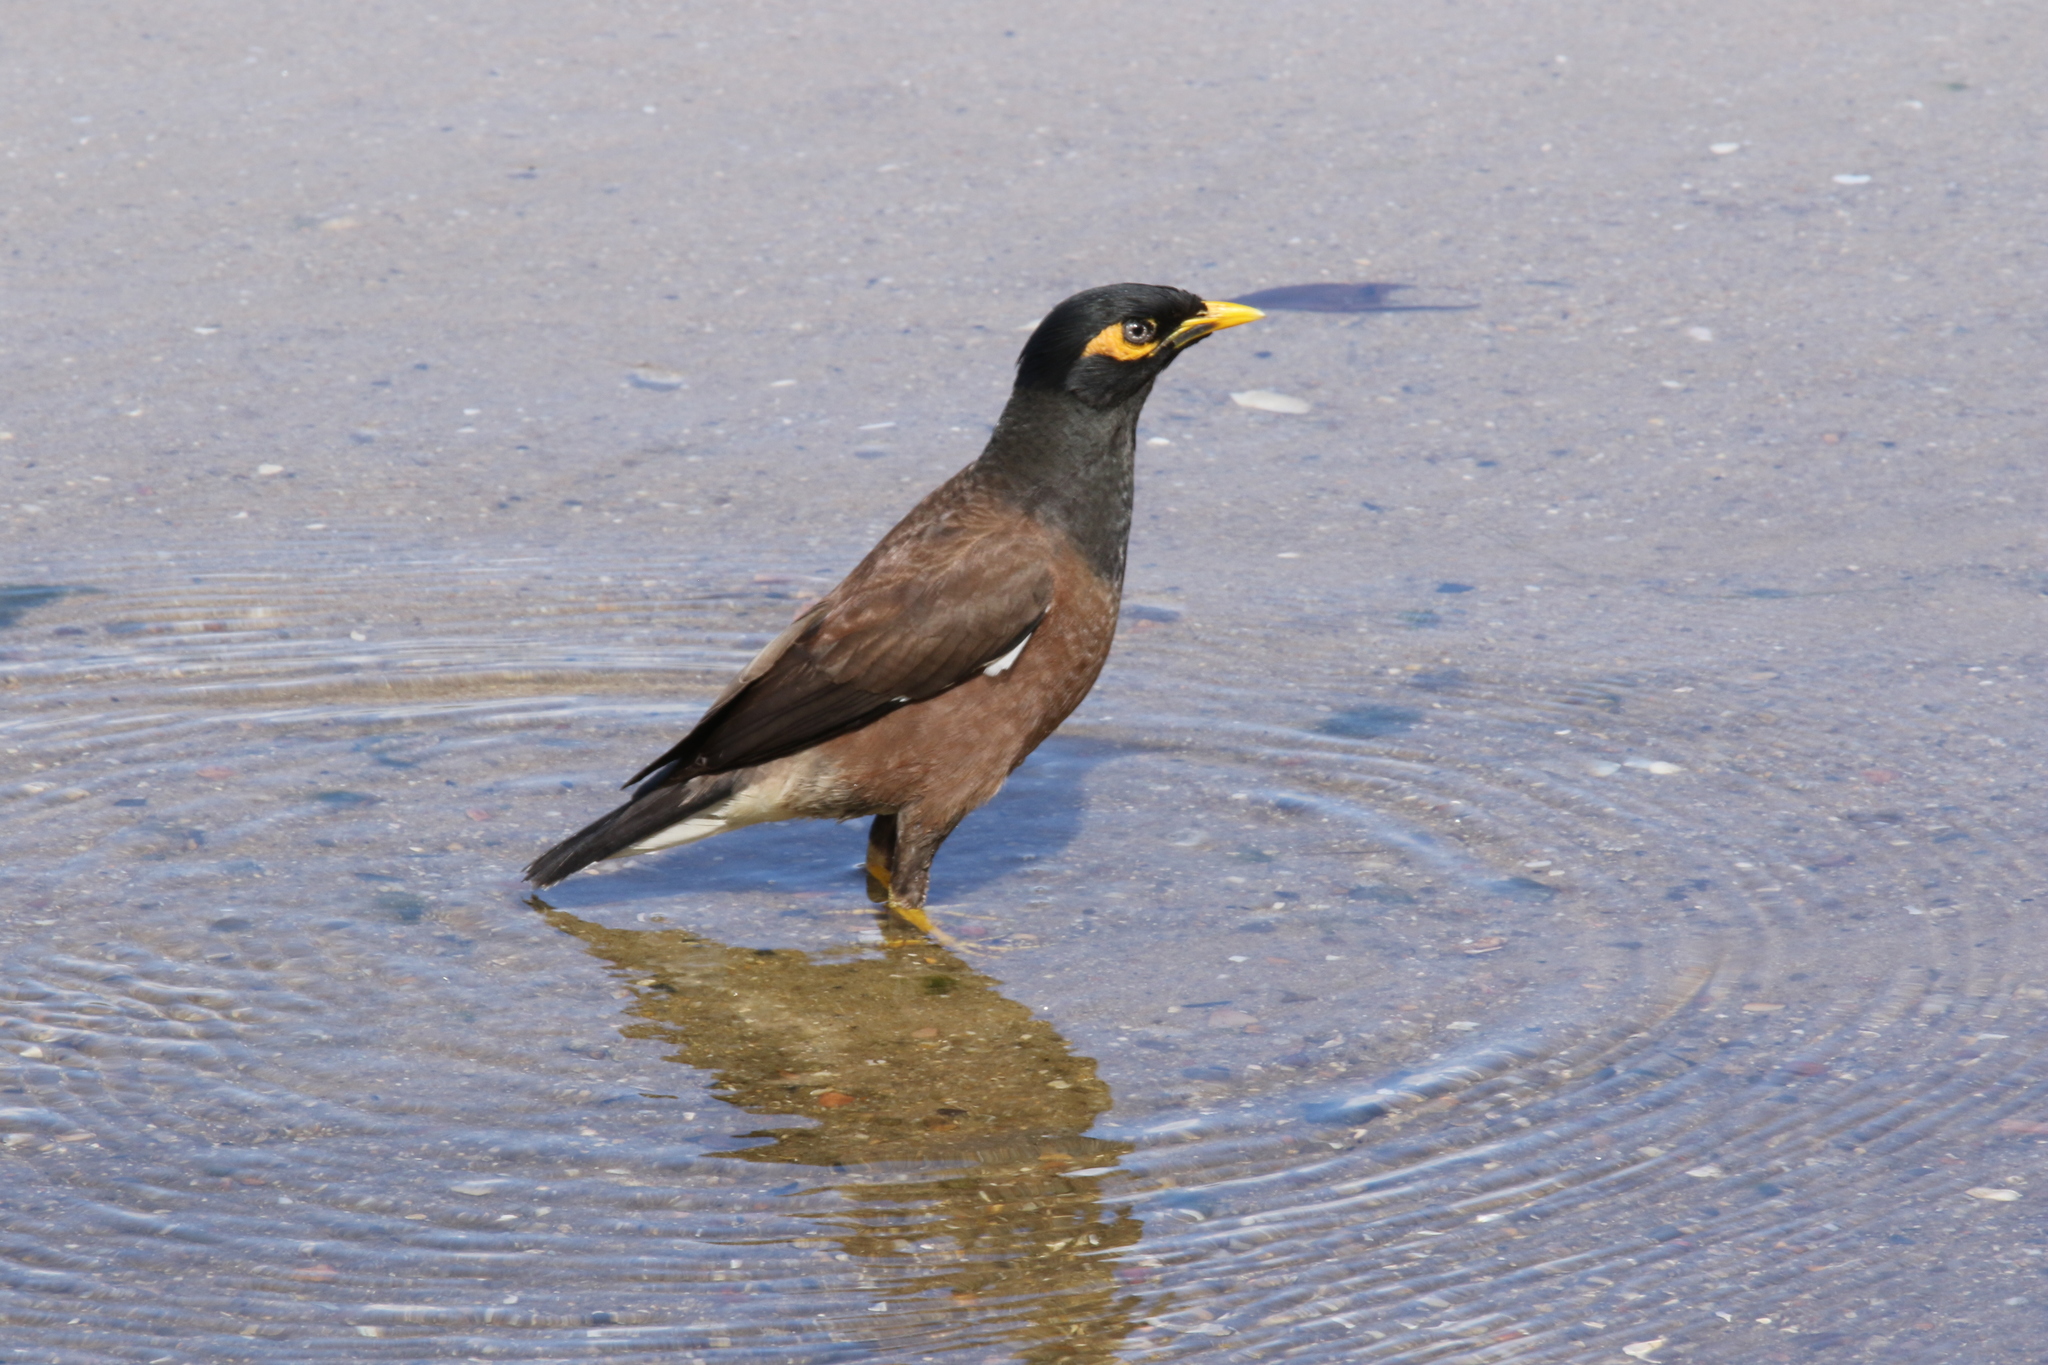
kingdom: Animalia
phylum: Chordata
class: Aves
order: Passeriformes
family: Sturnidae
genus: Acridotheres
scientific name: Acridotheres tristis
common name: Common myna
